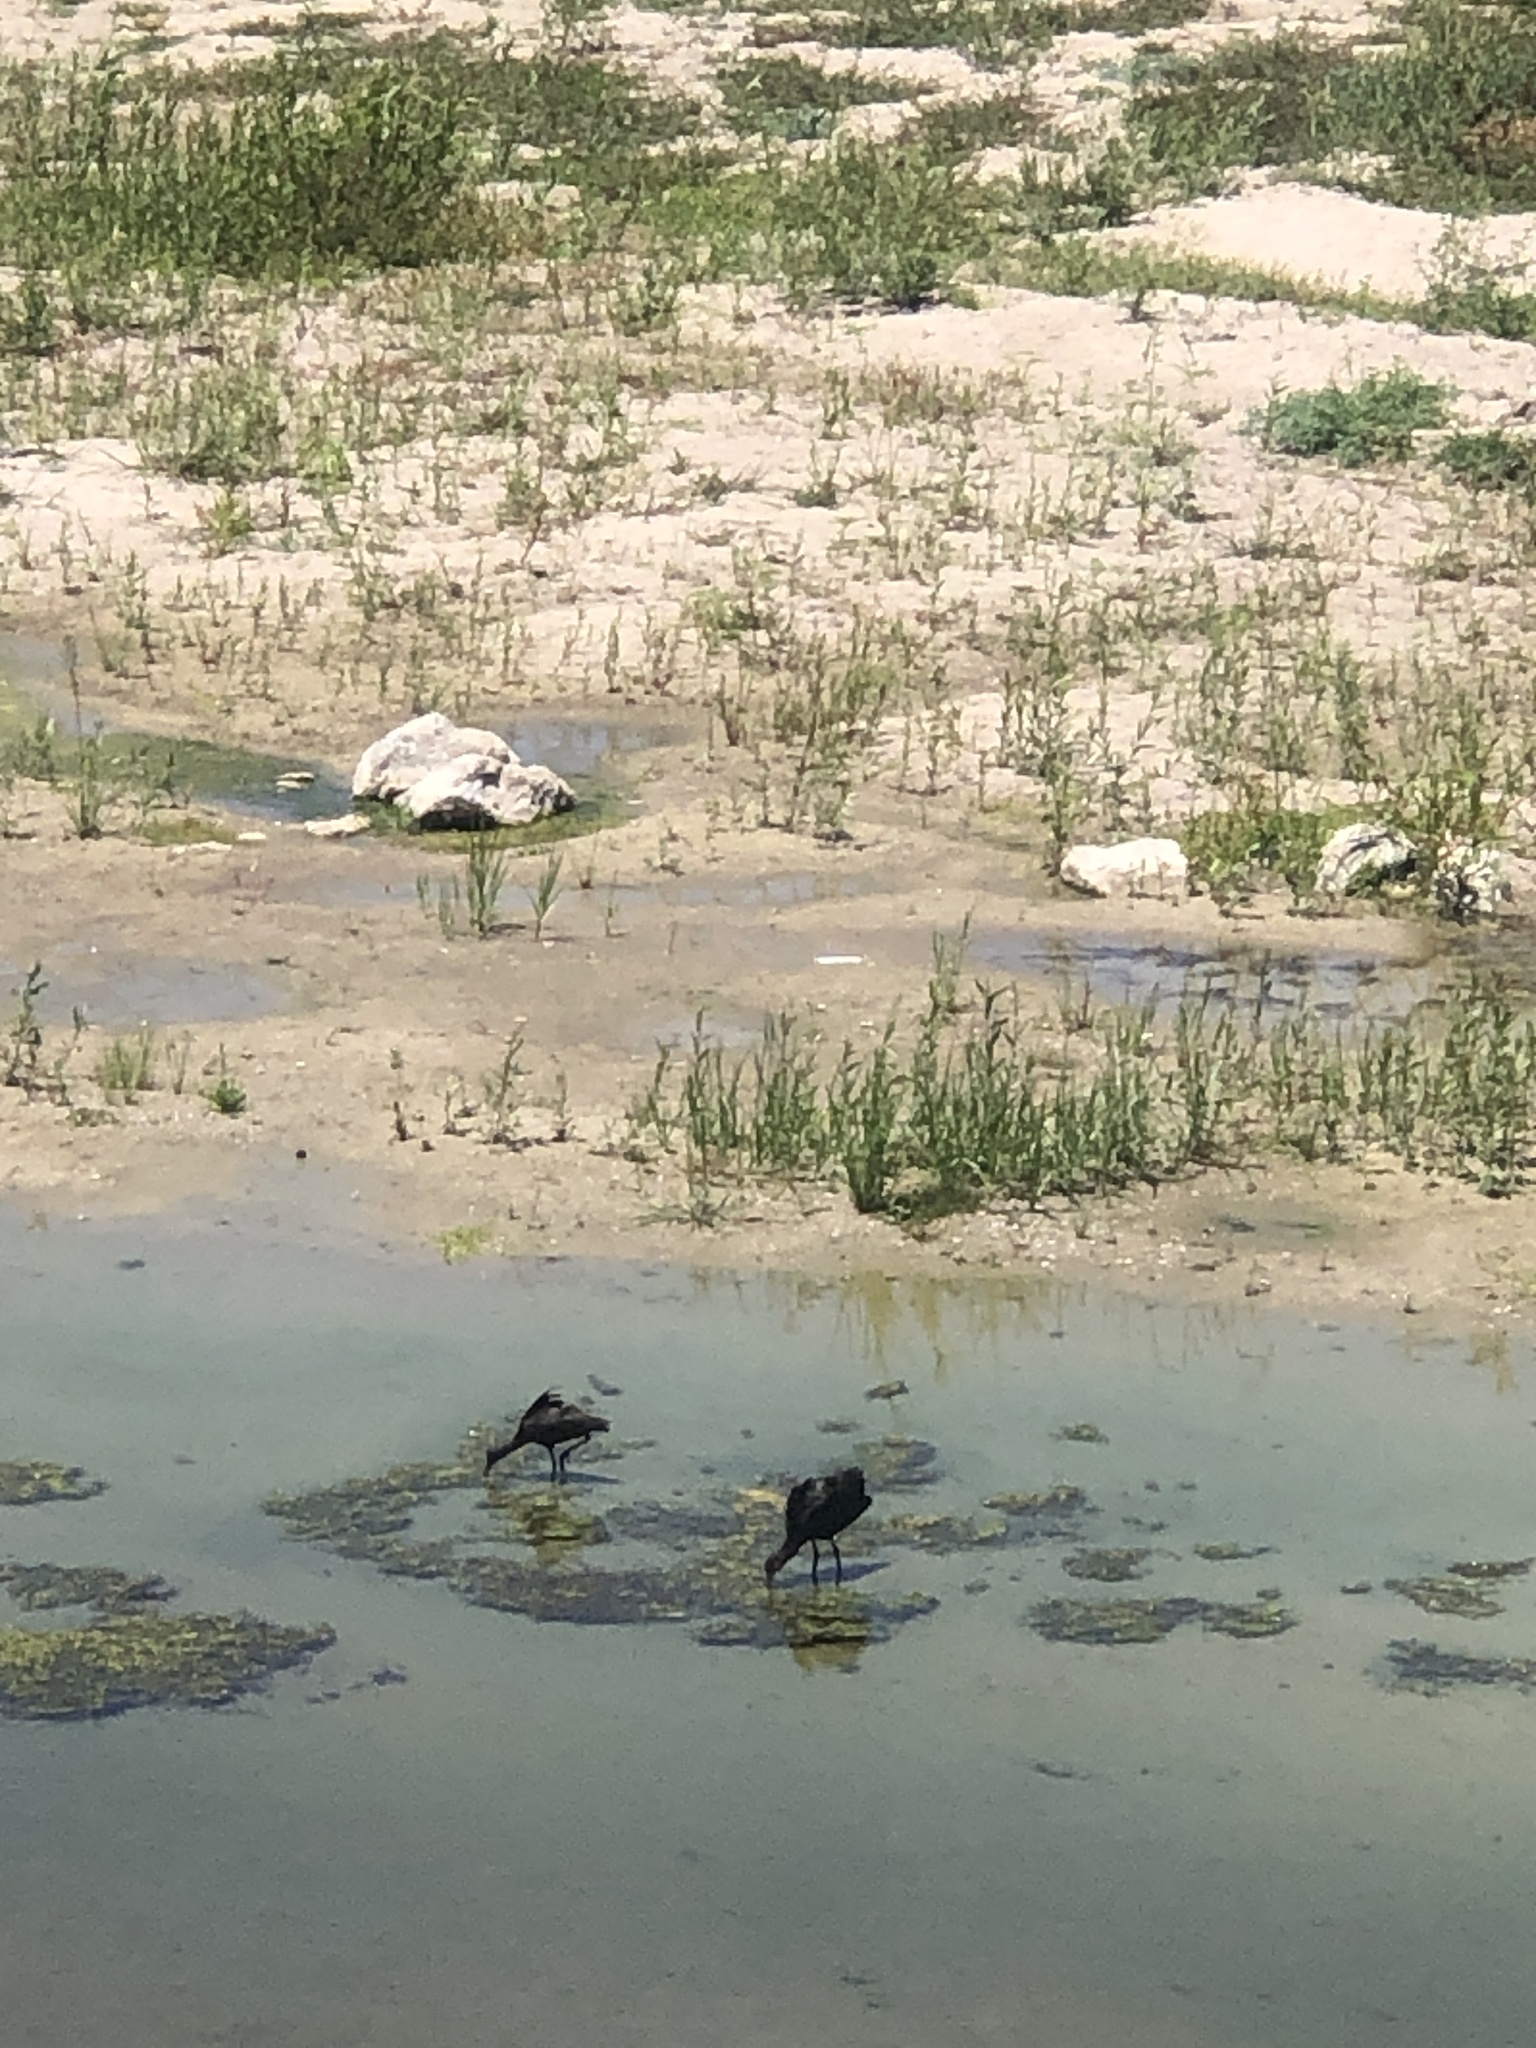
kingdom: Animalia
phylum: Chordata
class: Aves
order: Pelecaniformes
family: Threskiornithidae
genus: Plegadis
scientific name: Plegadis chihi
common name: White-faced ibis
